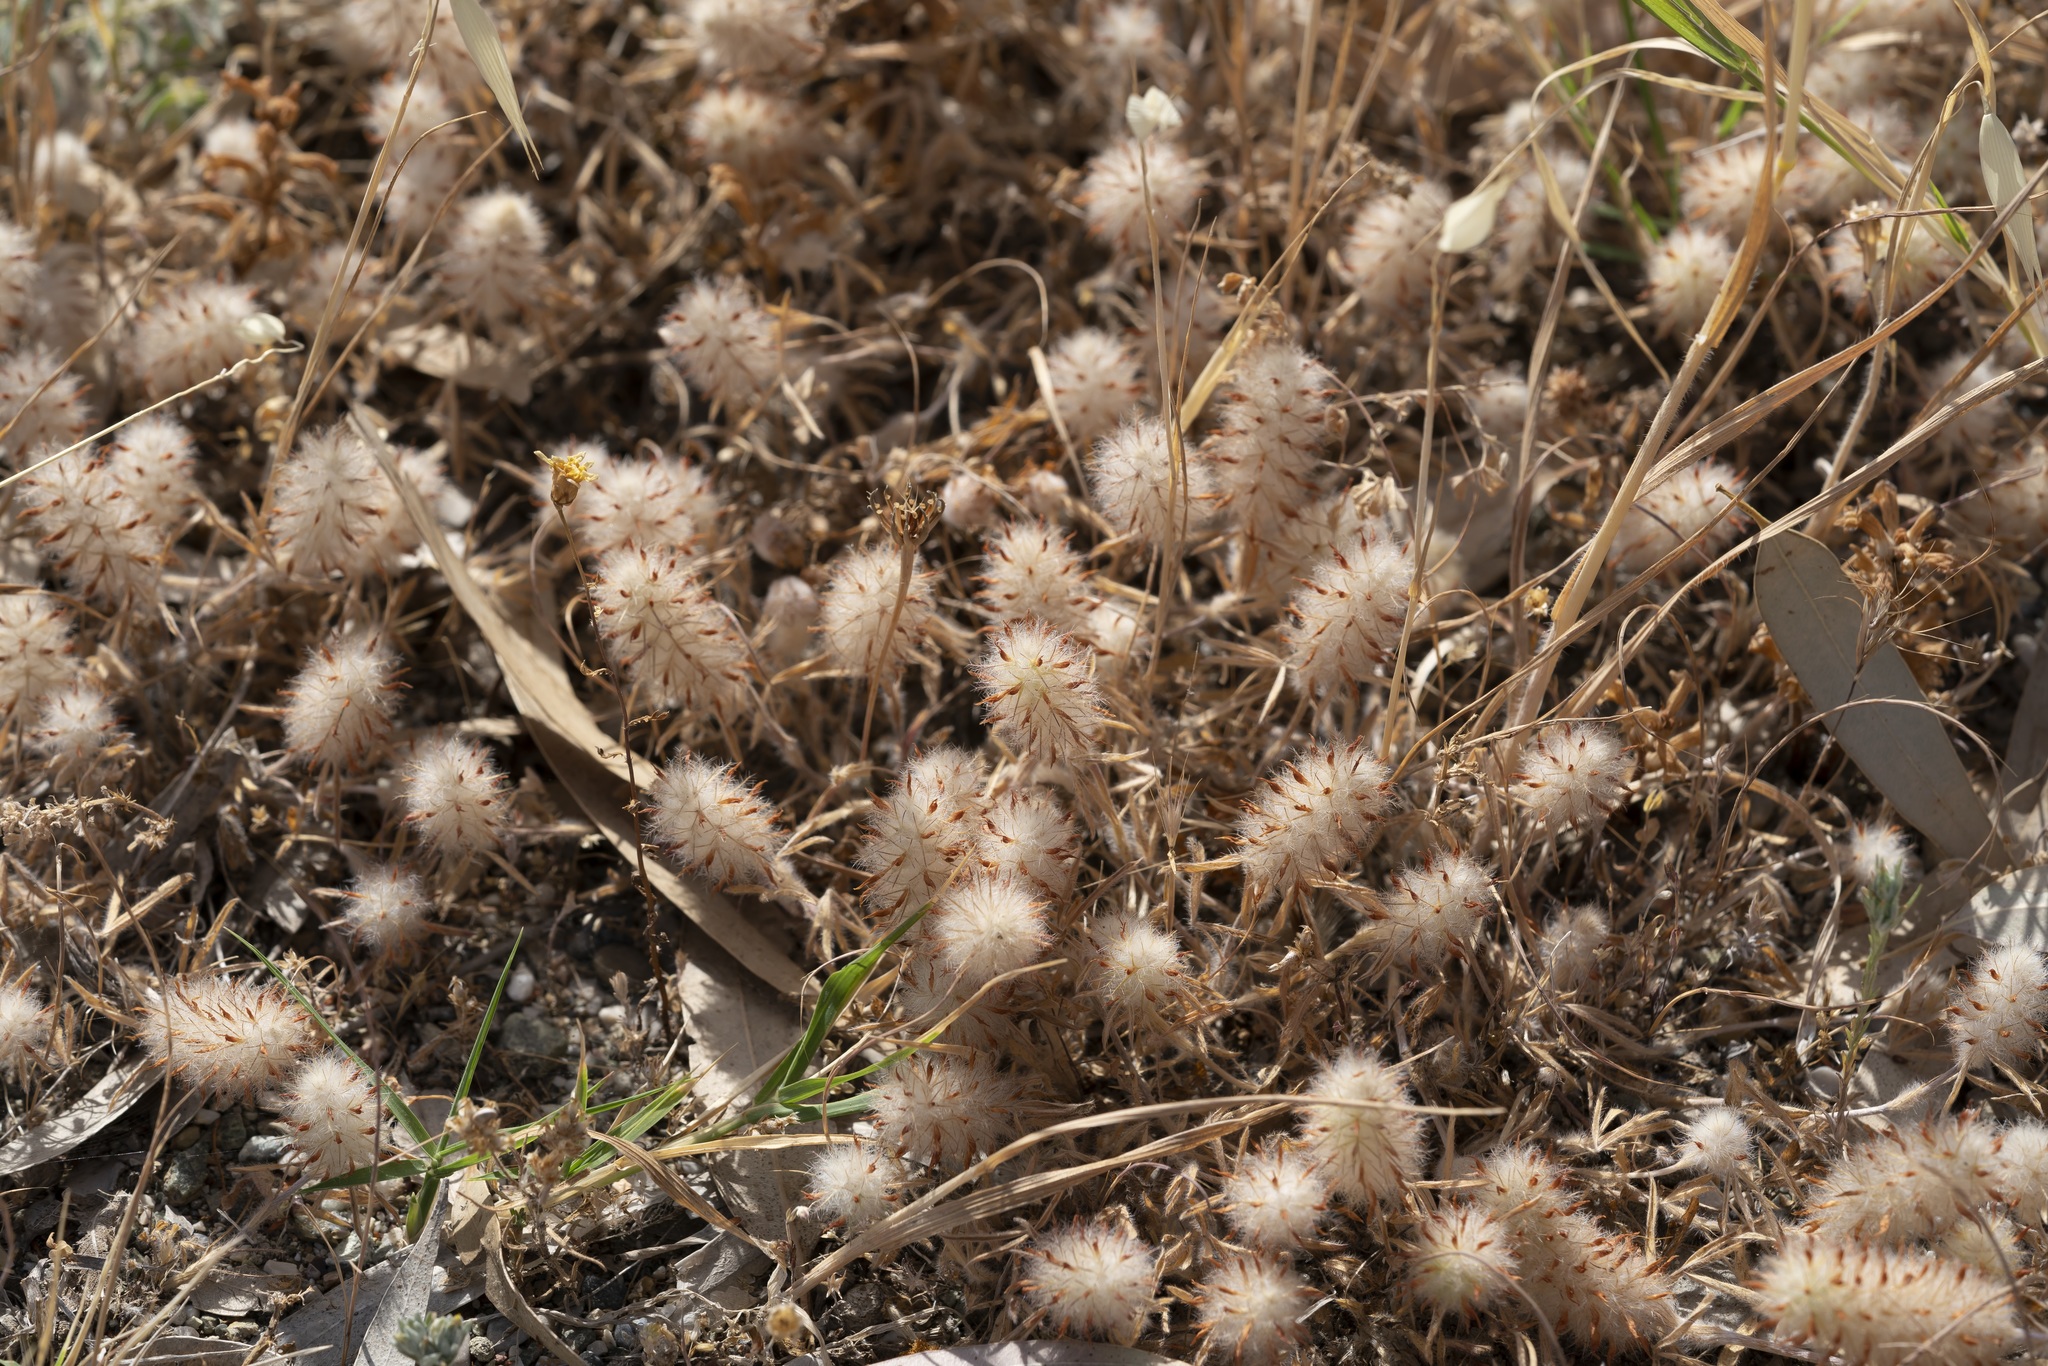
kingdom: Plantae
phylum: Tracheophyta
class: Magnoliopsida
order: Fabales
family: Fabaceae
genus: Trifolium
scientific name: Trifolium infamia-ponertii
